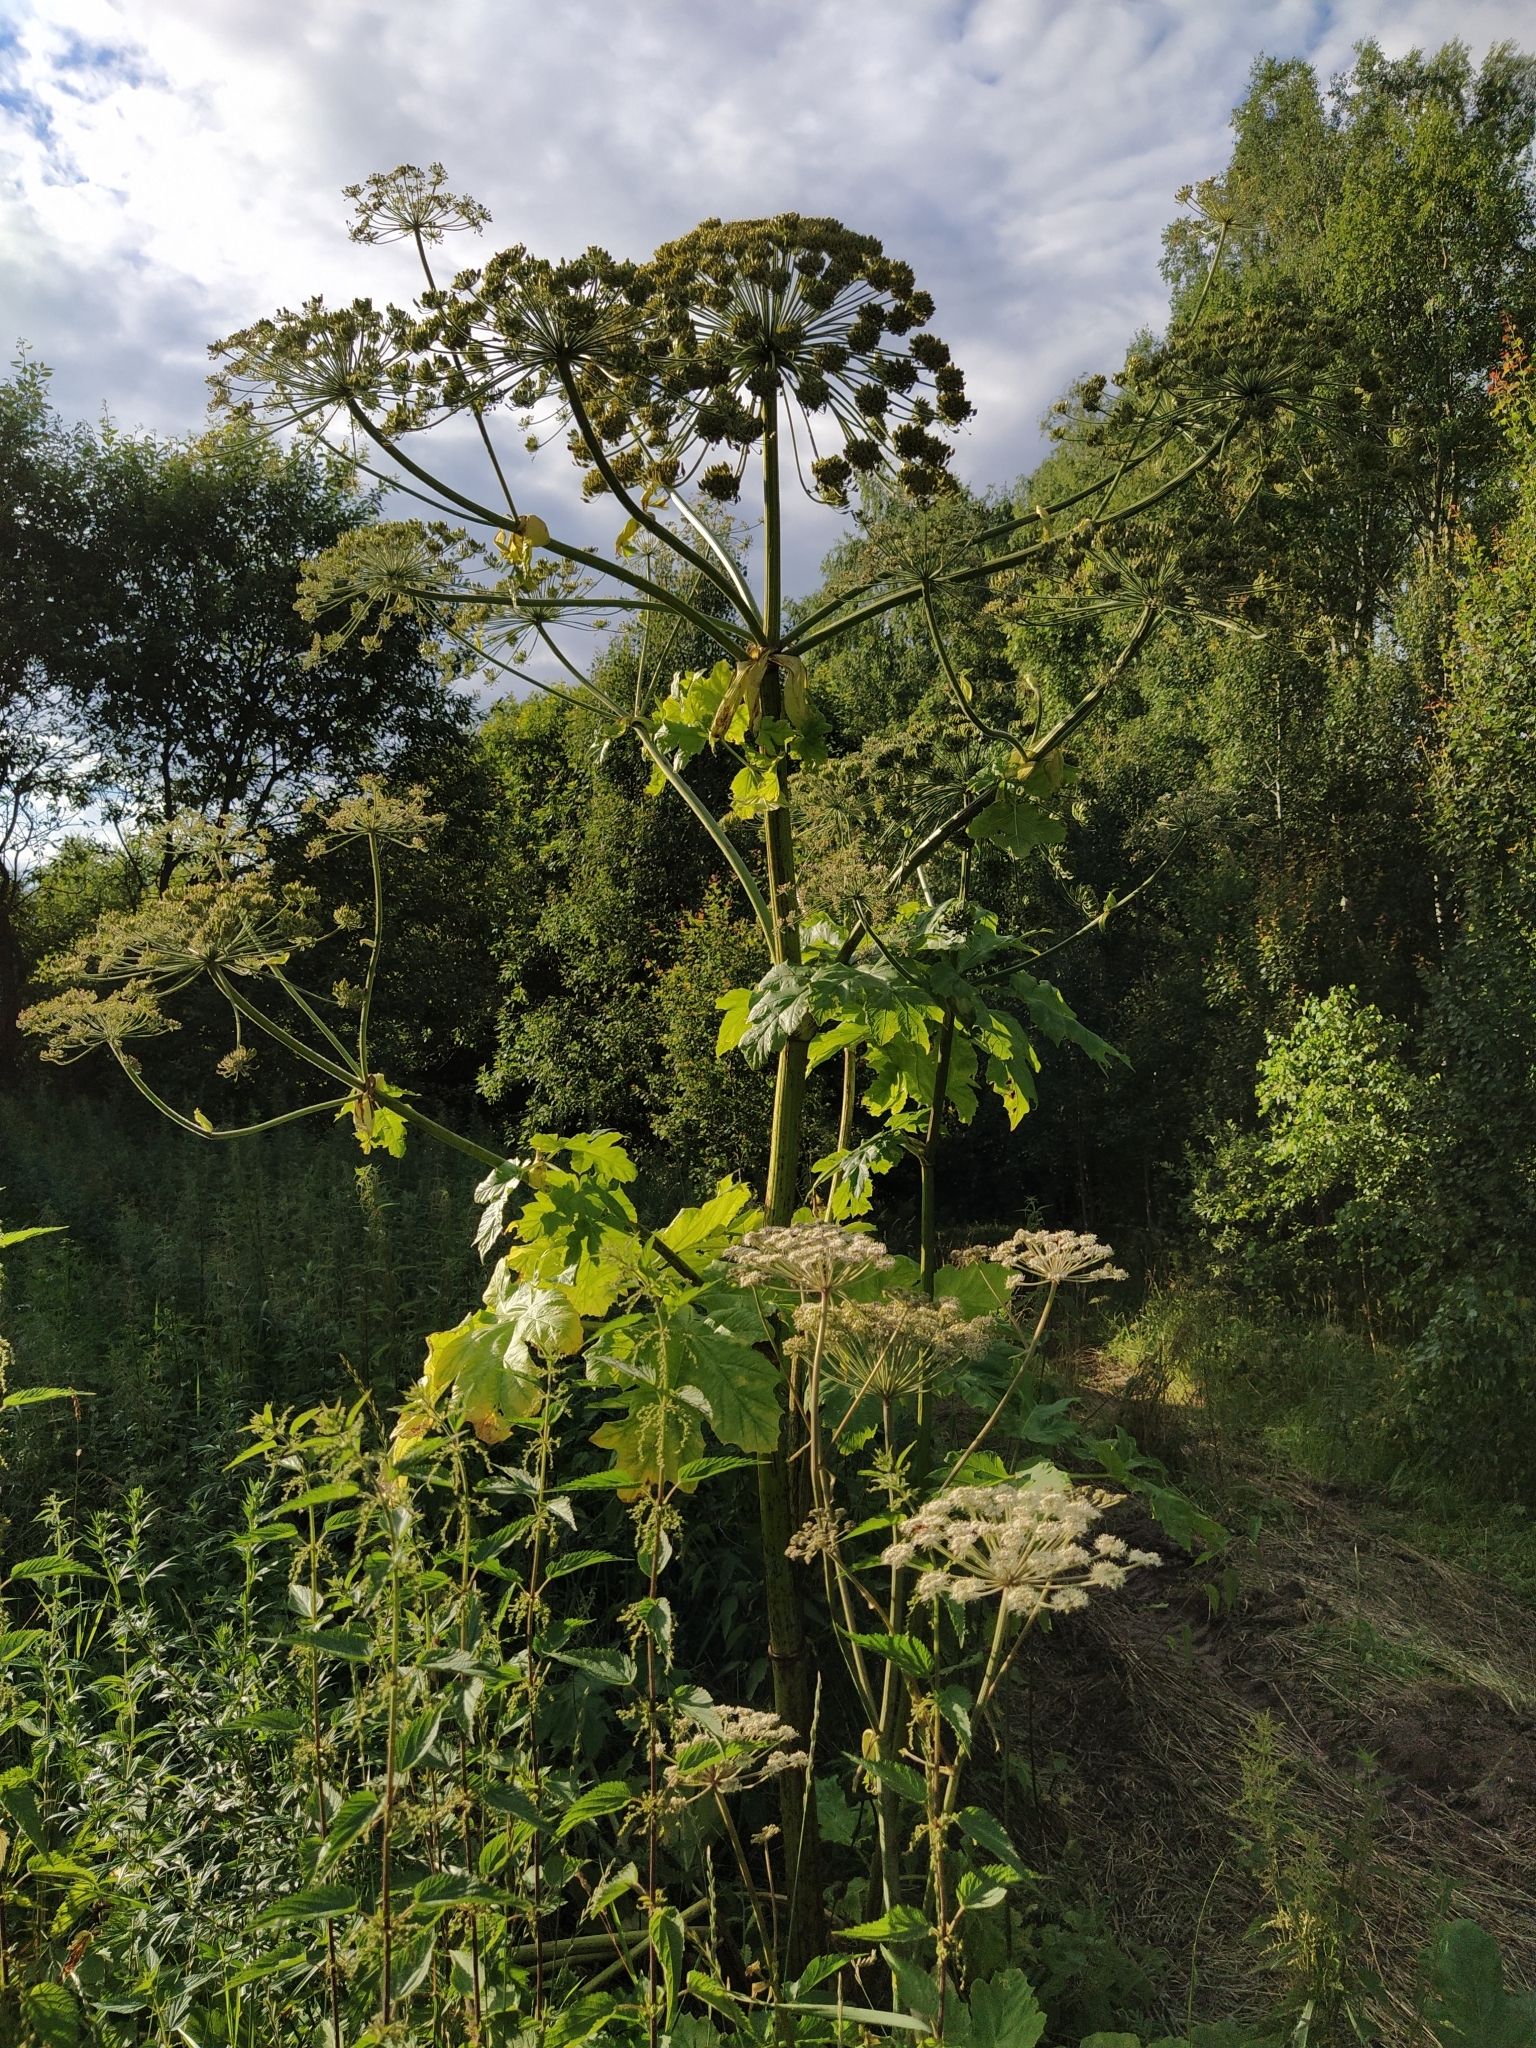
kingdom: Plantae
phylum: Tracheophyta
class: Magnoliopsida
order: Apiales
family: Apiaceae
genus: Heracleum
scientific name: Heracleum sosnowskyi
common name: Sosnowsky's hogweed
